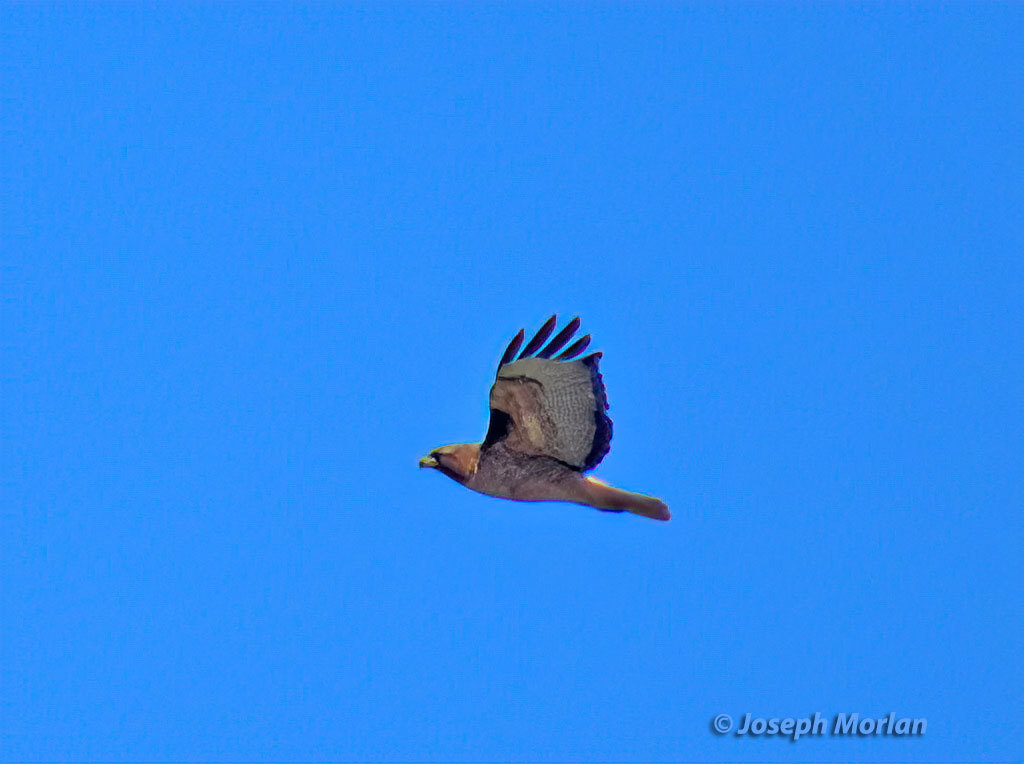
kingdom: Animalia
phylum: Chordata
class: Aves
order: Accipitriformes
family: Accipitridae
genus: Buteo
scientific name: Buteo jamaicensis
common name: Red-tailed hawk
